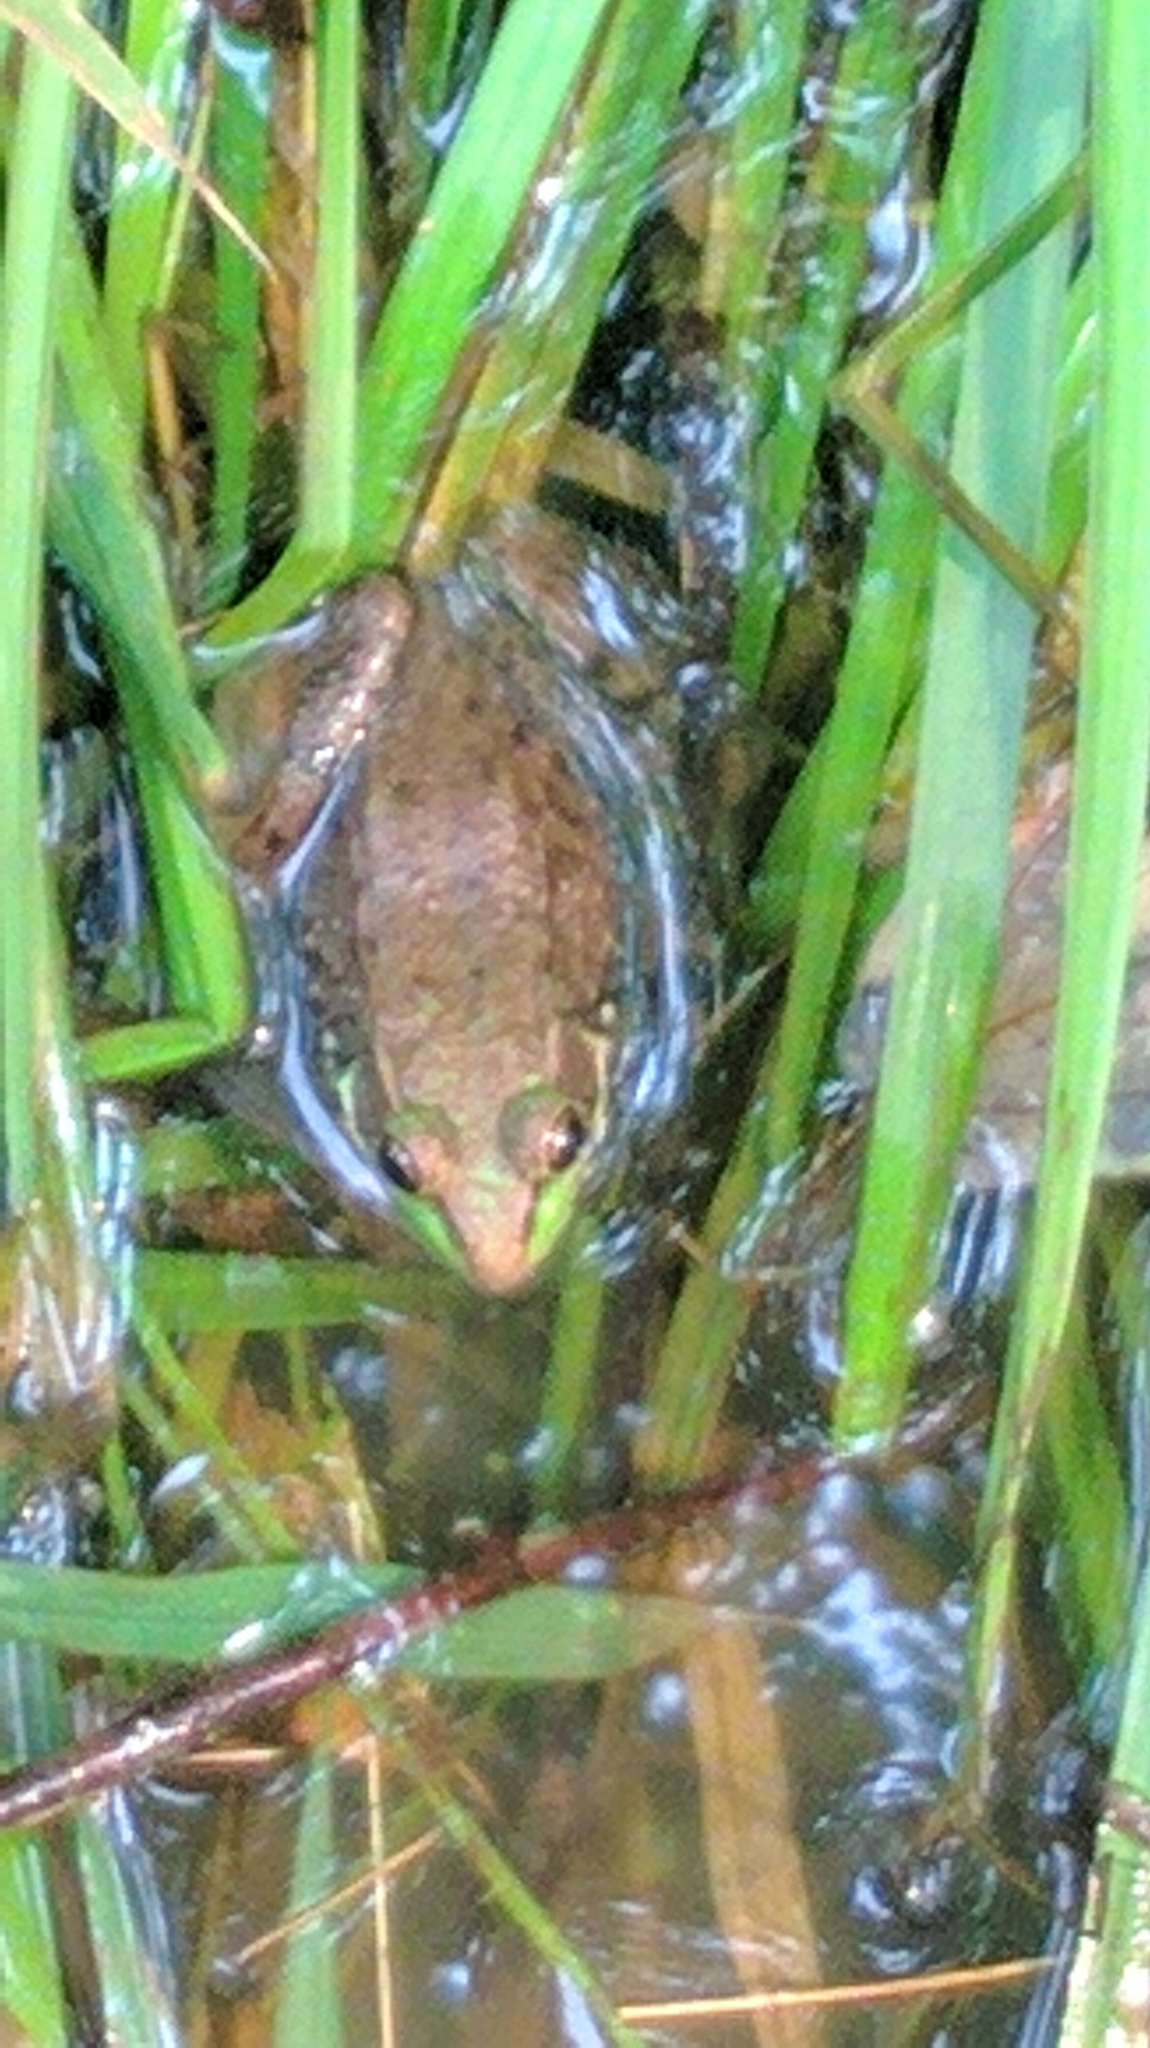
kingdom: Animalia
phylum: Chordata
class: Amphibia
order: Anura
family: Ranidae
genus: Lithobates
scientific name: Lithobates clamitans
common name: Green frog
